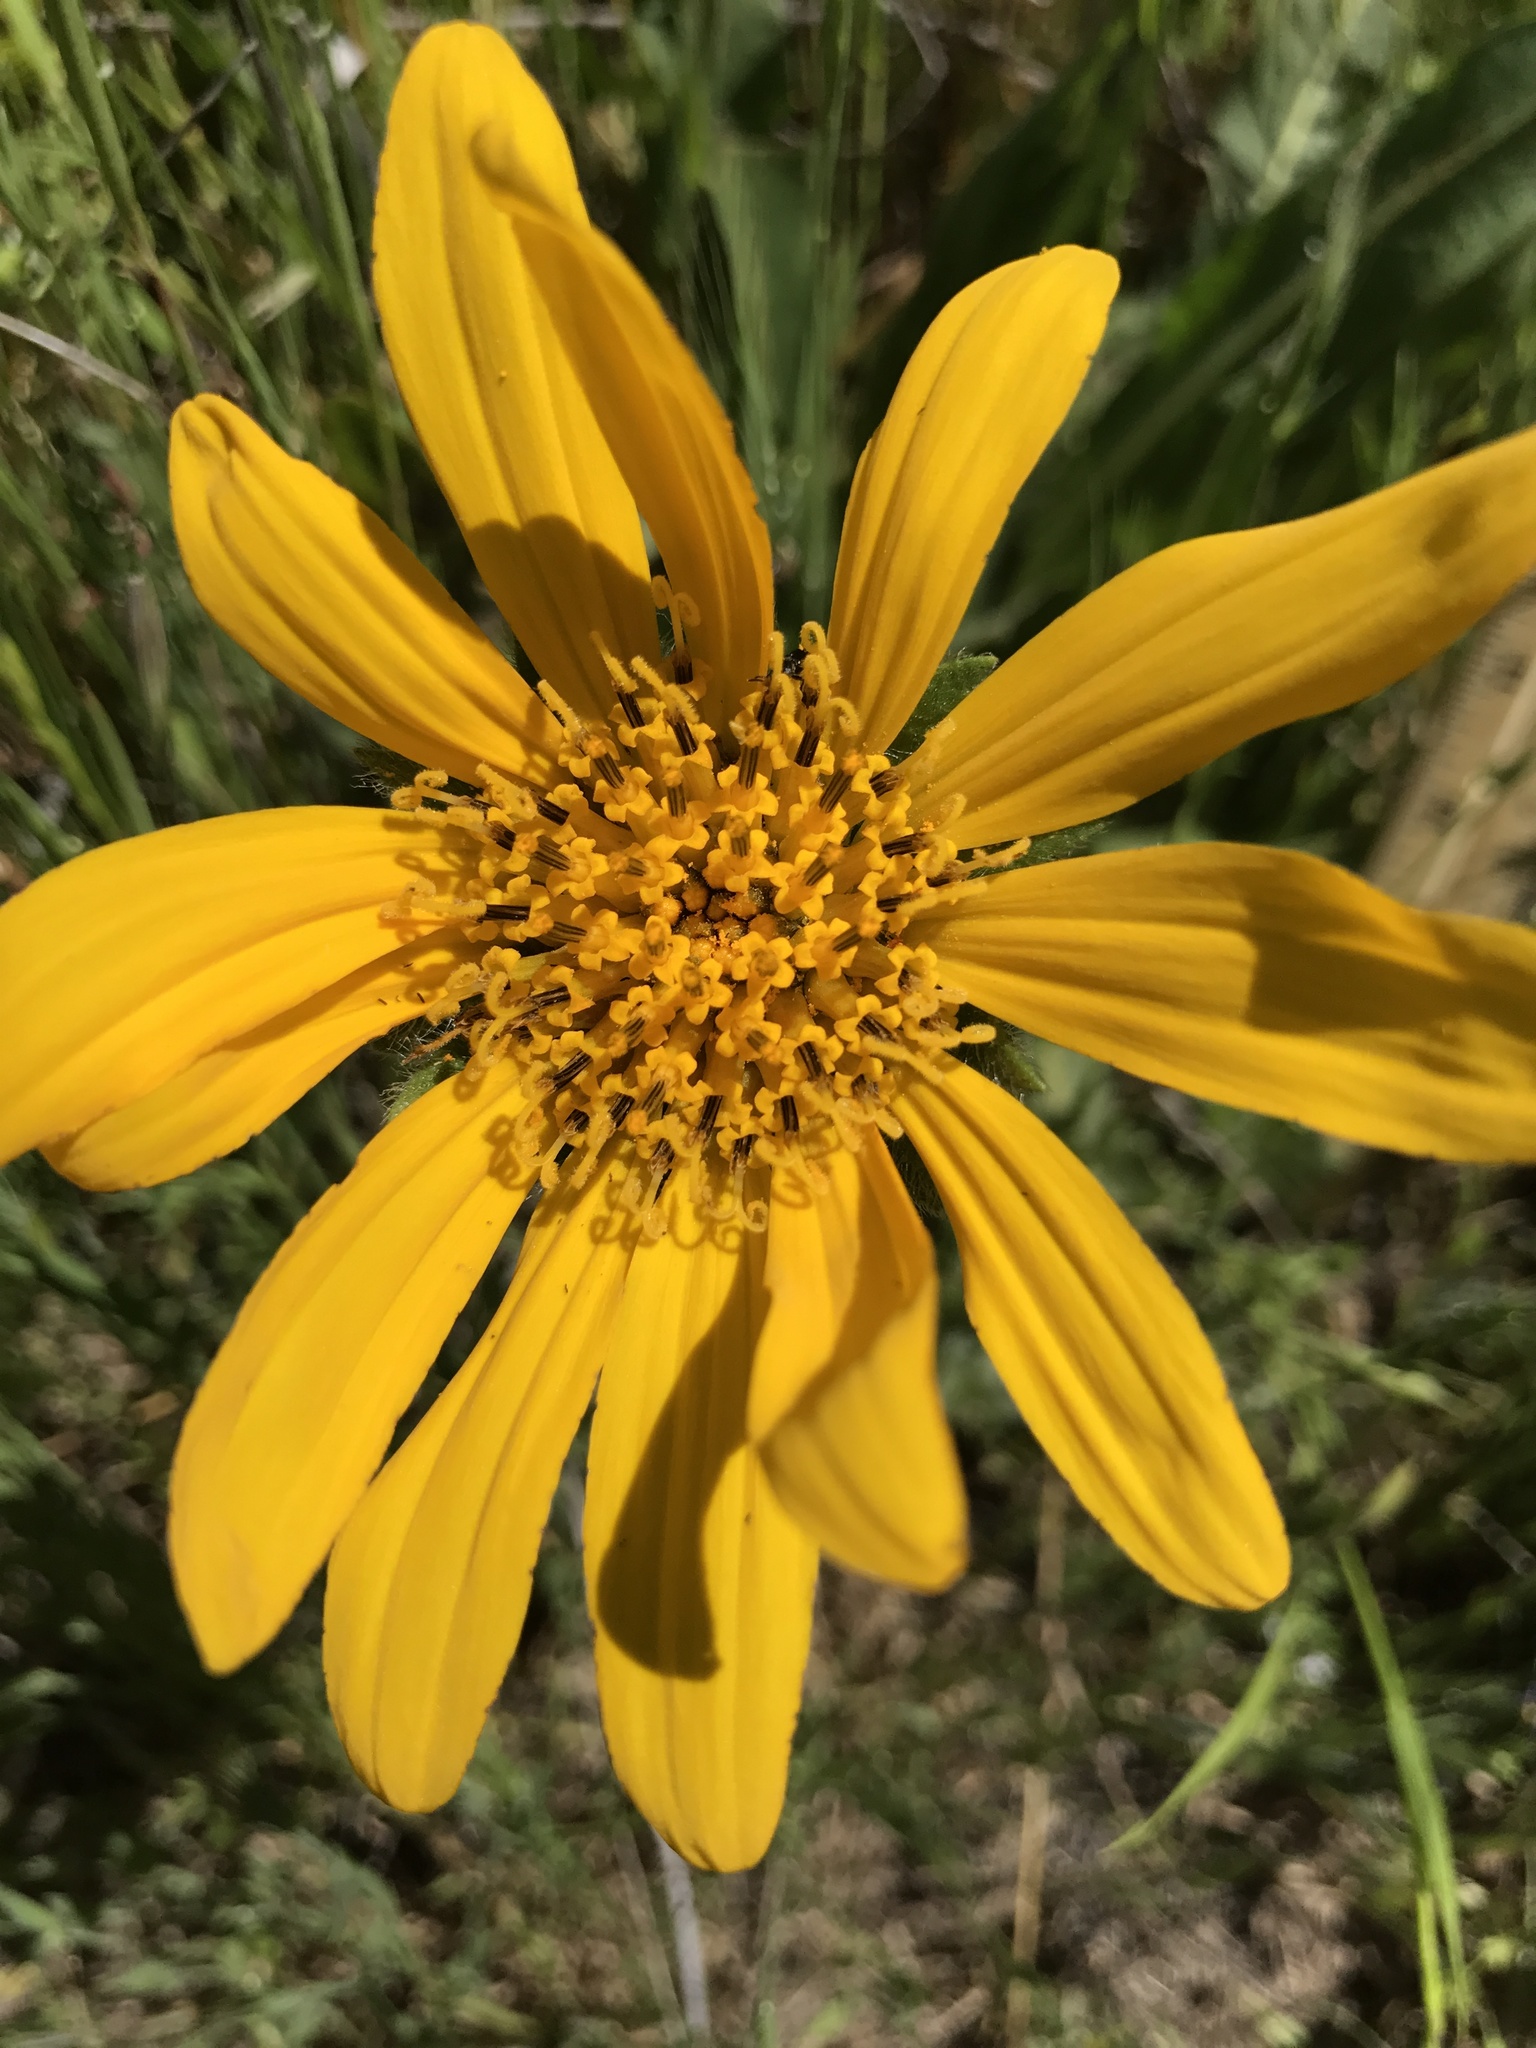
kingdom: Plantae
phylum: Tracheophyta
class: Magnoliopsida
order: Asterales
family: Asteraceae
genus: Wyethia
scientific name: Wyethia angustifolia
